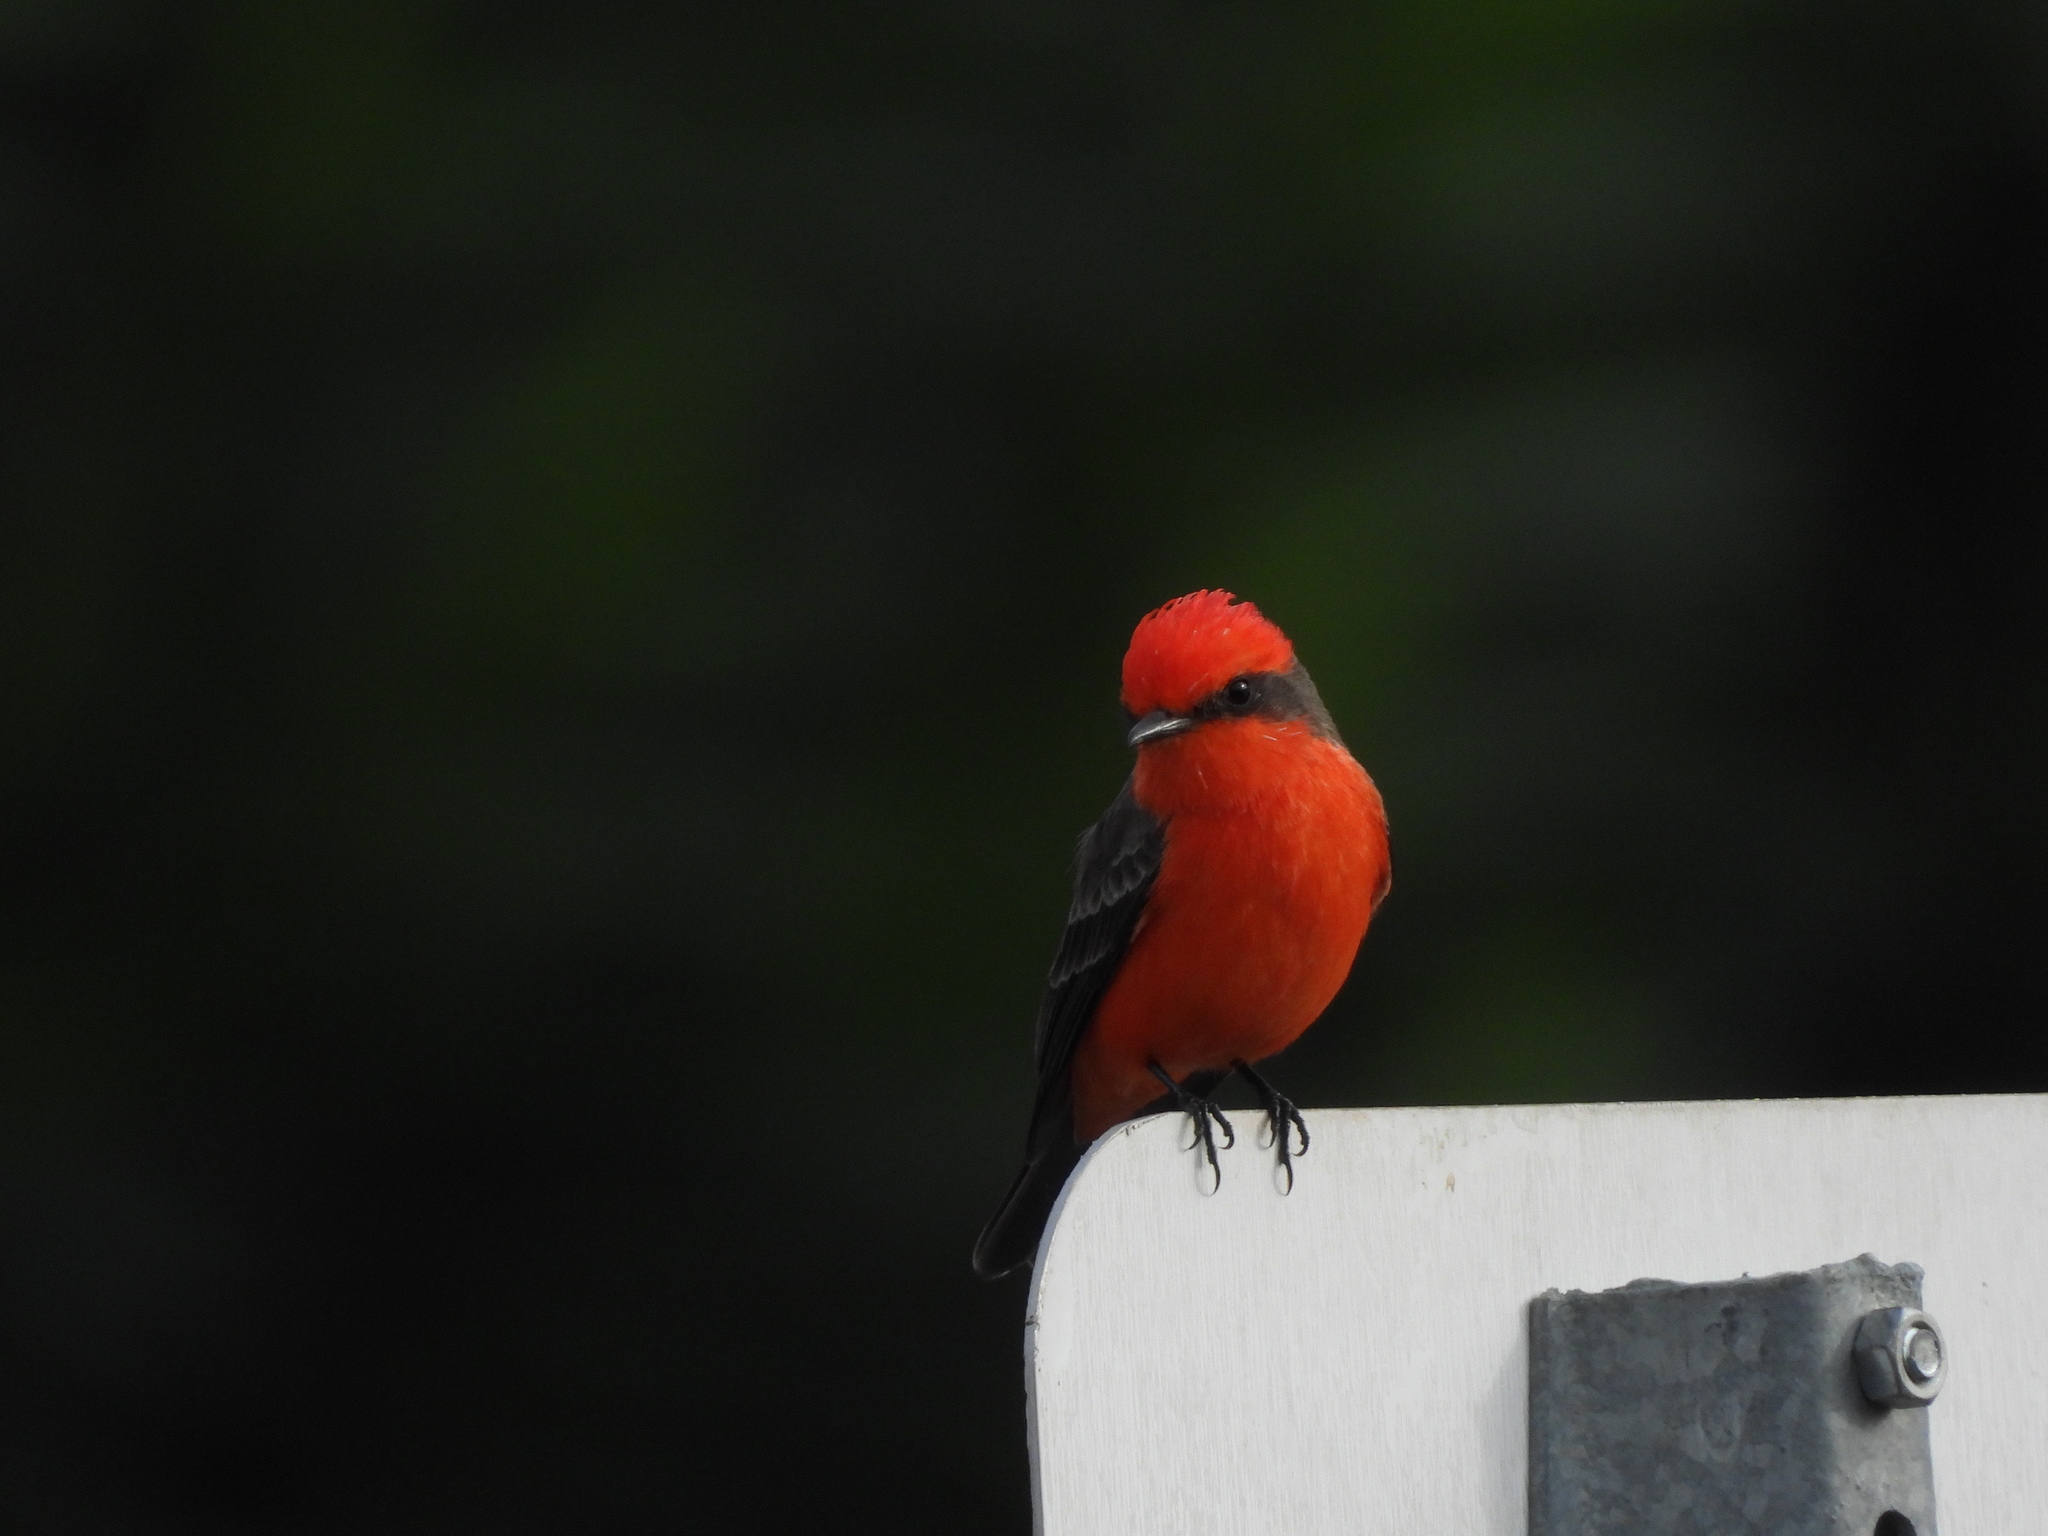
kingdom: Animalia
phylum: Chordata
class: Aves
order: Passeriformes
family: Tyrannidae
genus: Pyrocephalus
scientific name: Pyrocephalus rubinus
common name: Vermilion flycatcher
